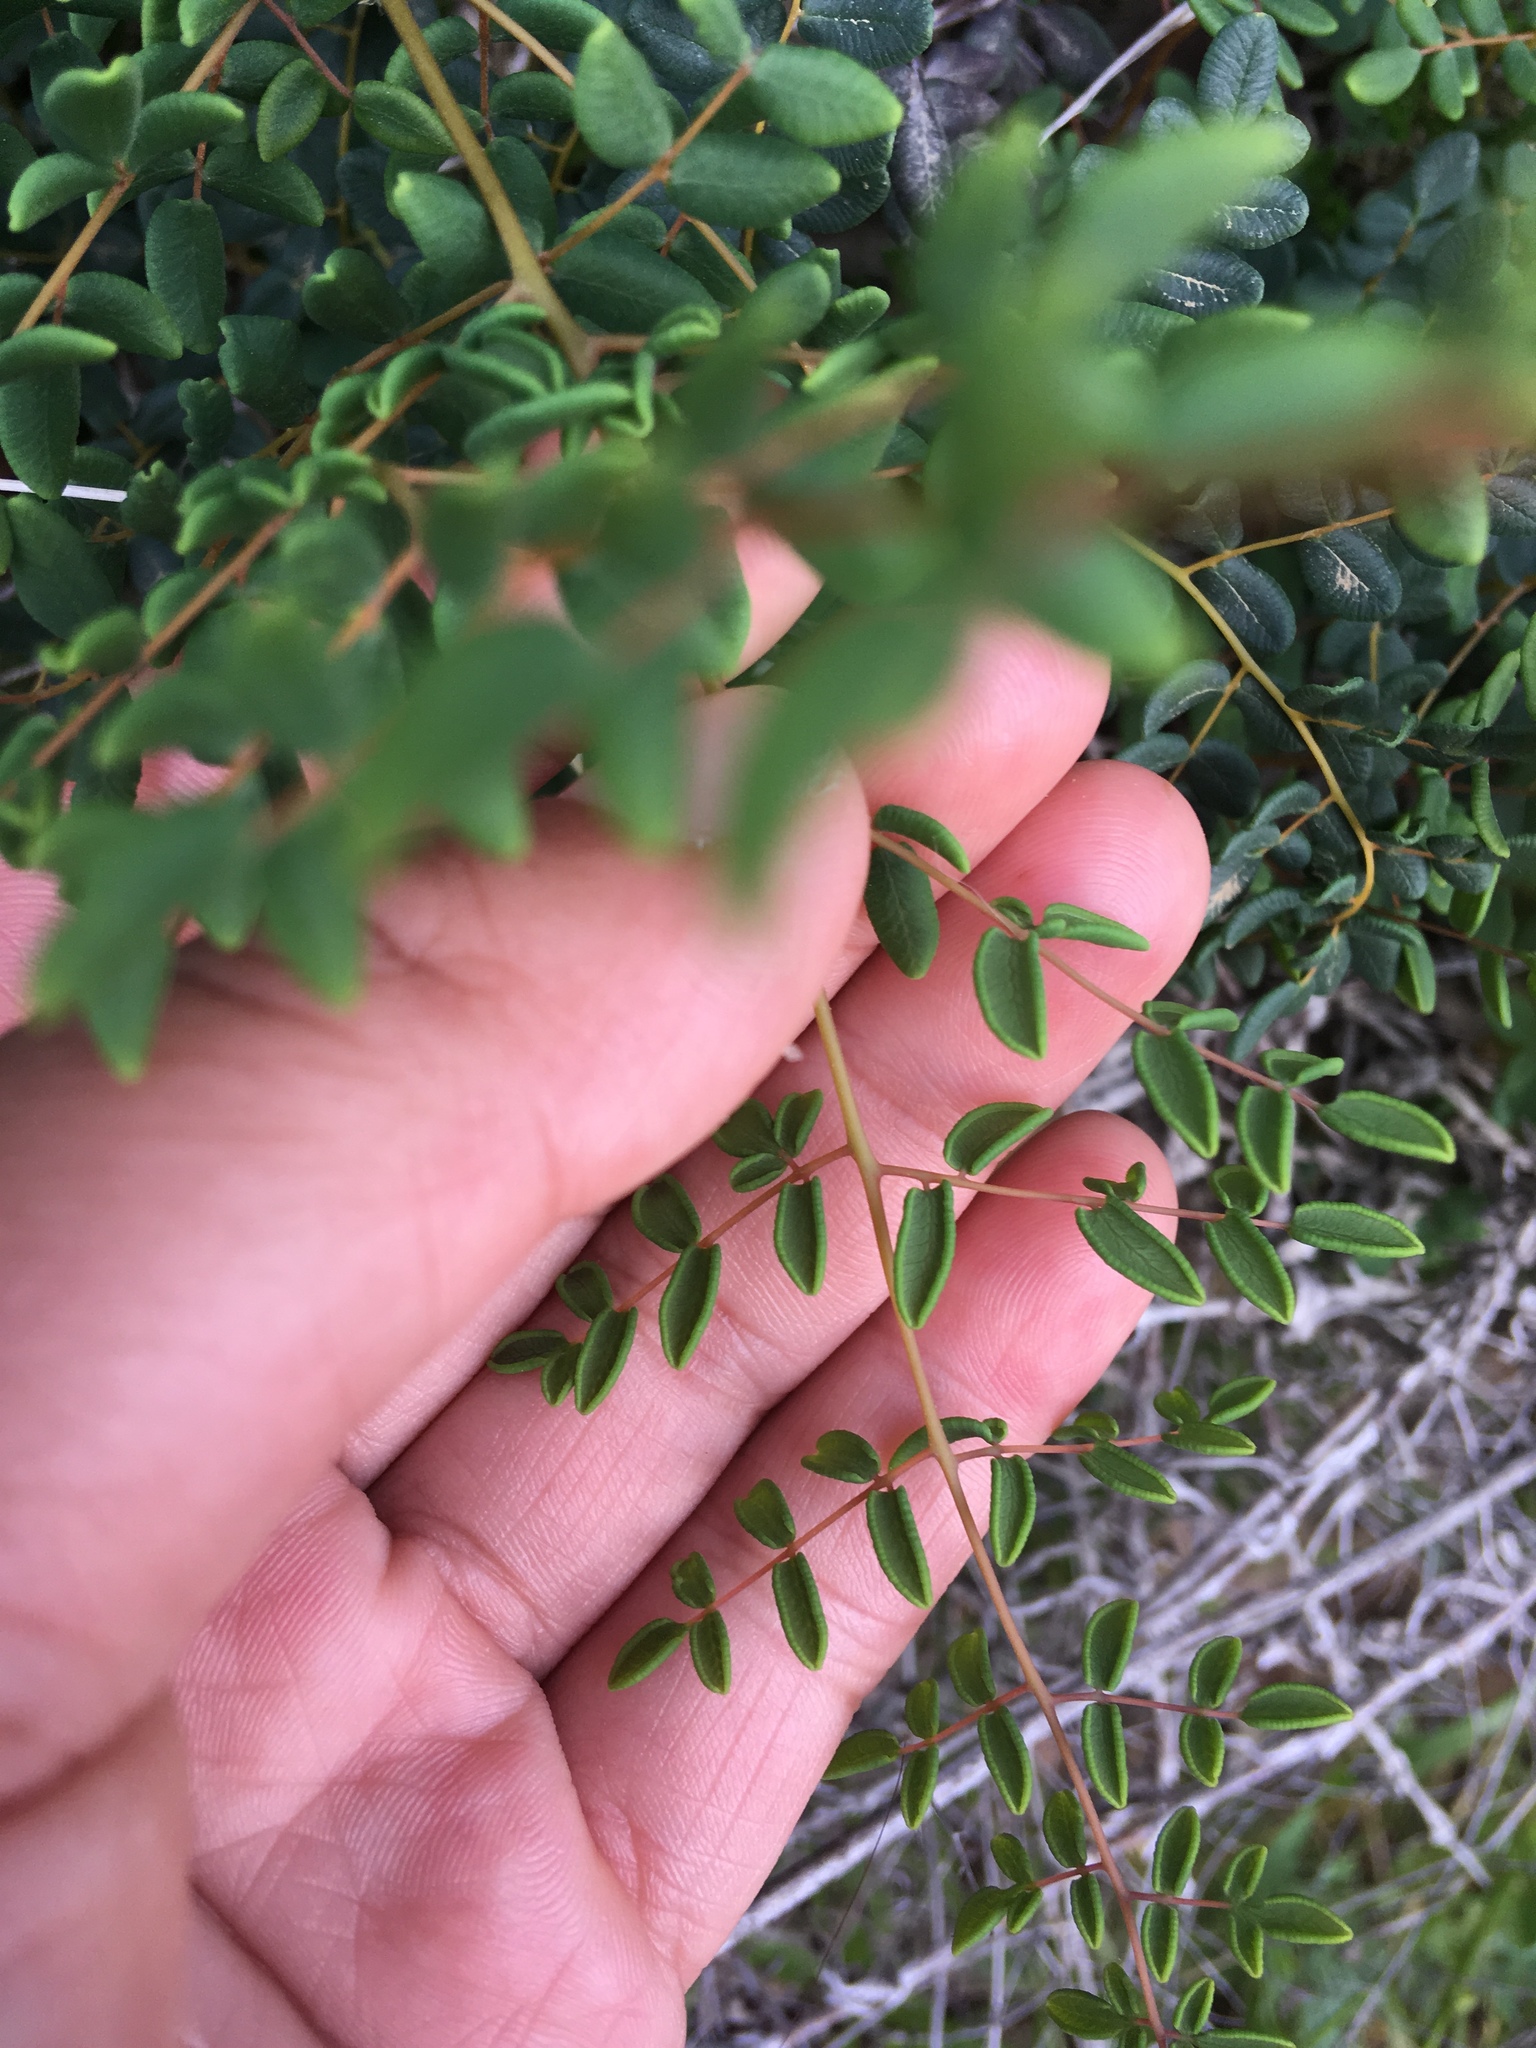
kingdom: Plantae
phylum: Tracheophyta
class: Polypodiopsida
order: Polypodiales
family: Pteridaceae
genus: Pellaea
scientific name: Pellaea andromedifolia
